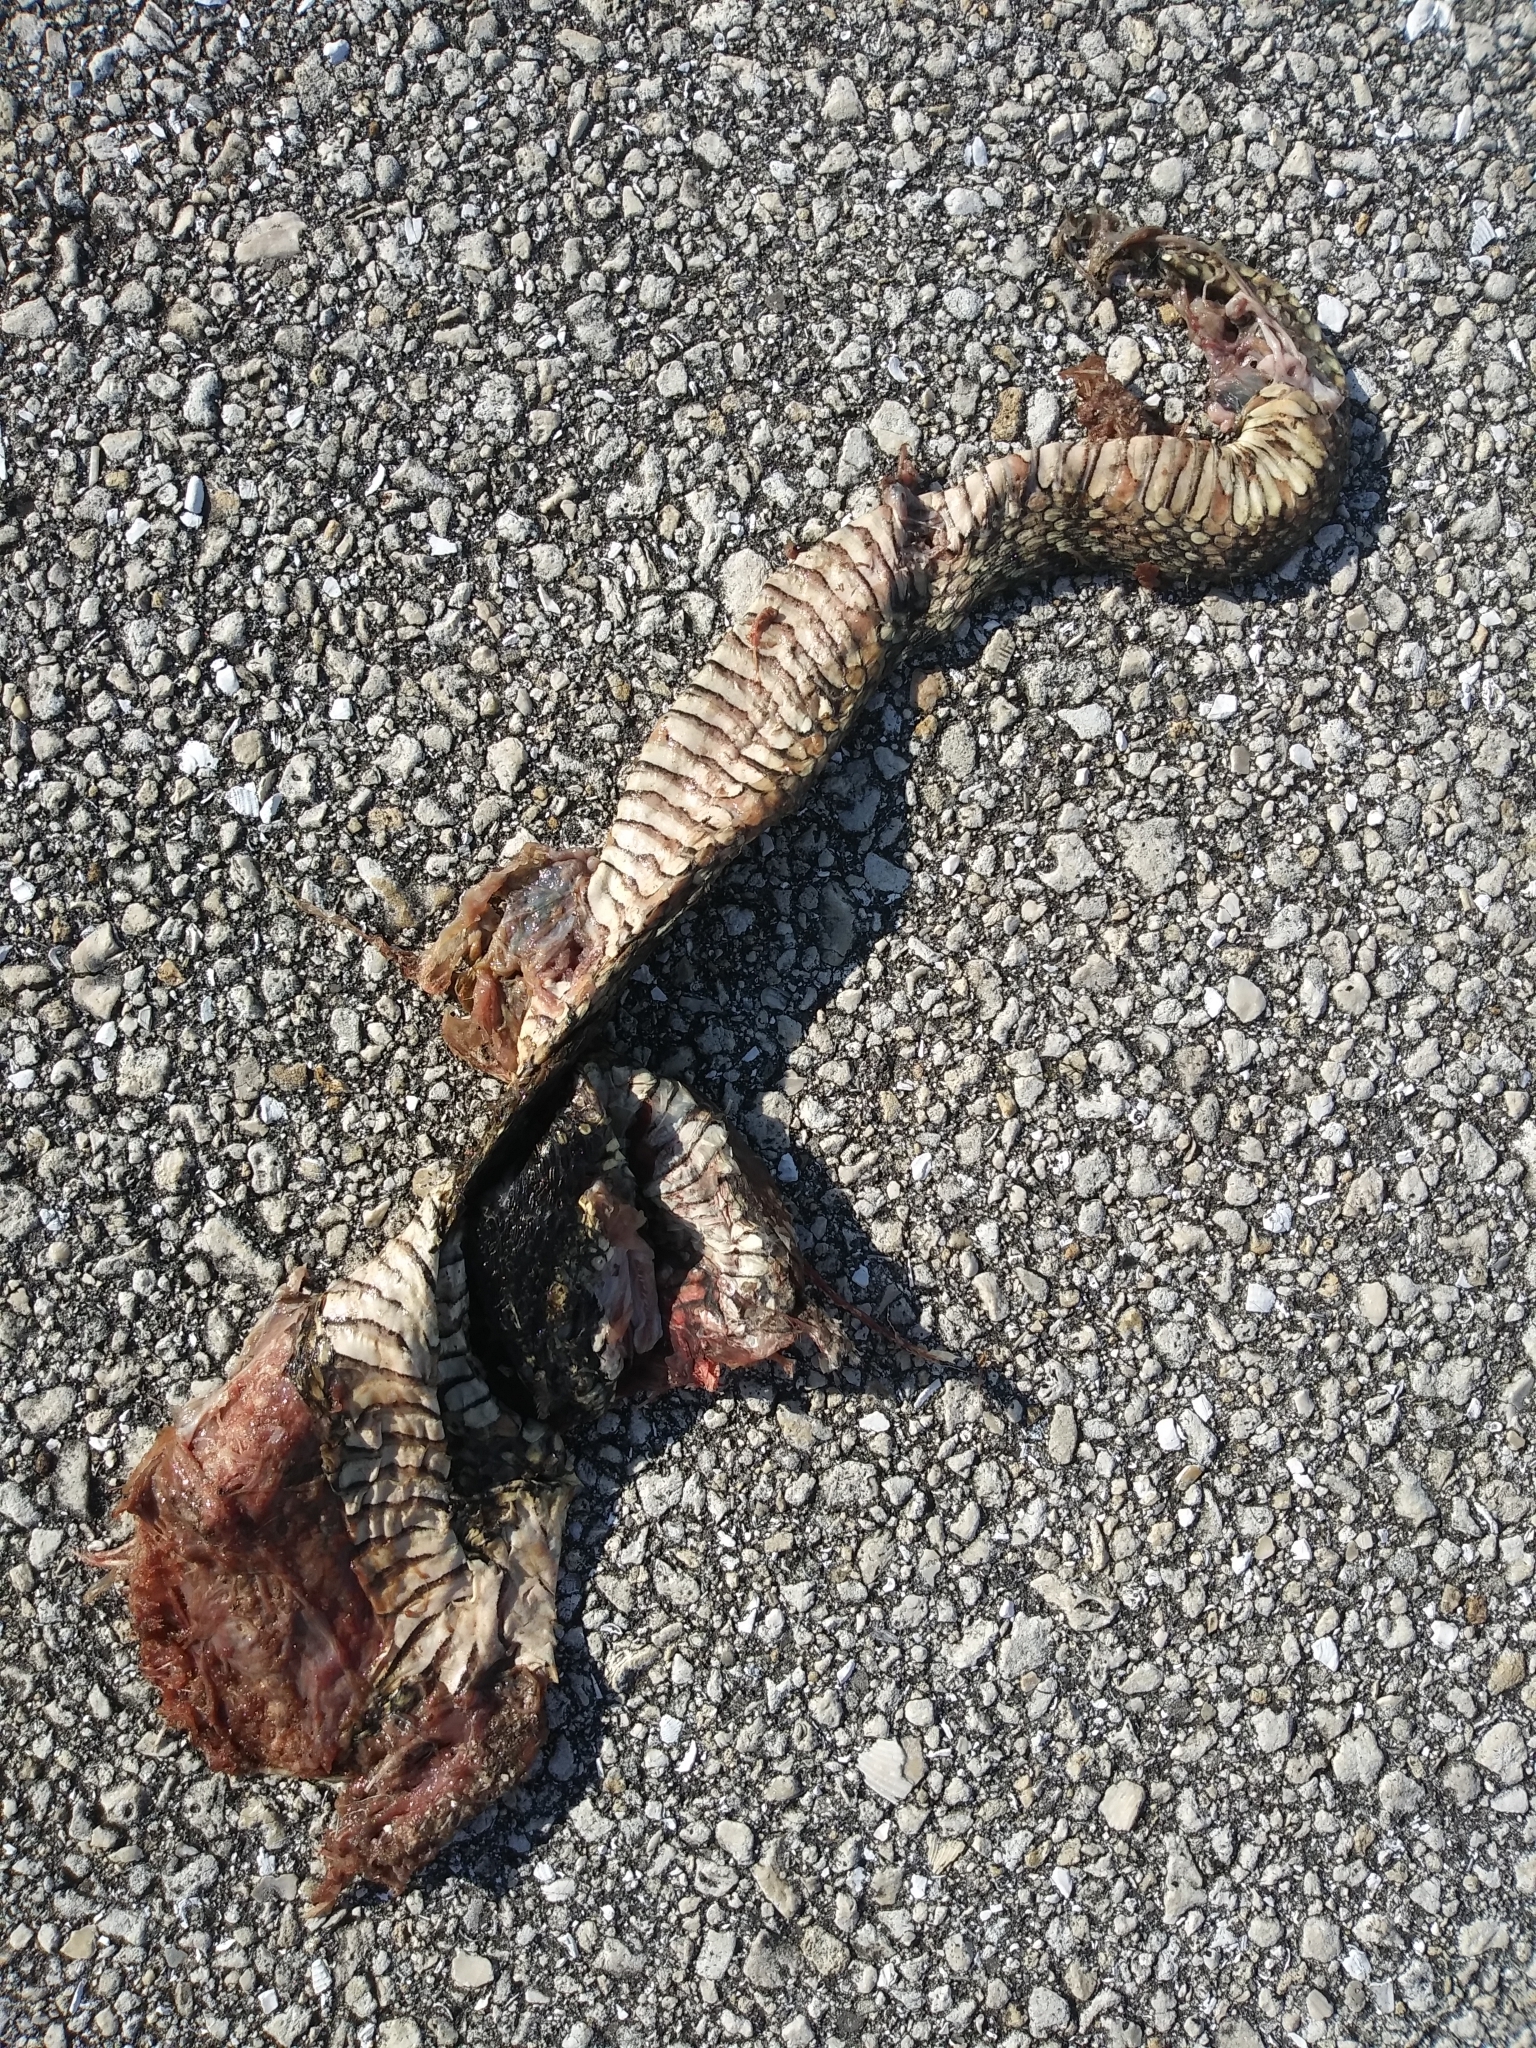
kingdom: Animalia
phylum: Chordata
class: Squamata
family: Colubridae
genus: Nerodia
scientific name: Nerodia fasciata
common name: Southern water snake
